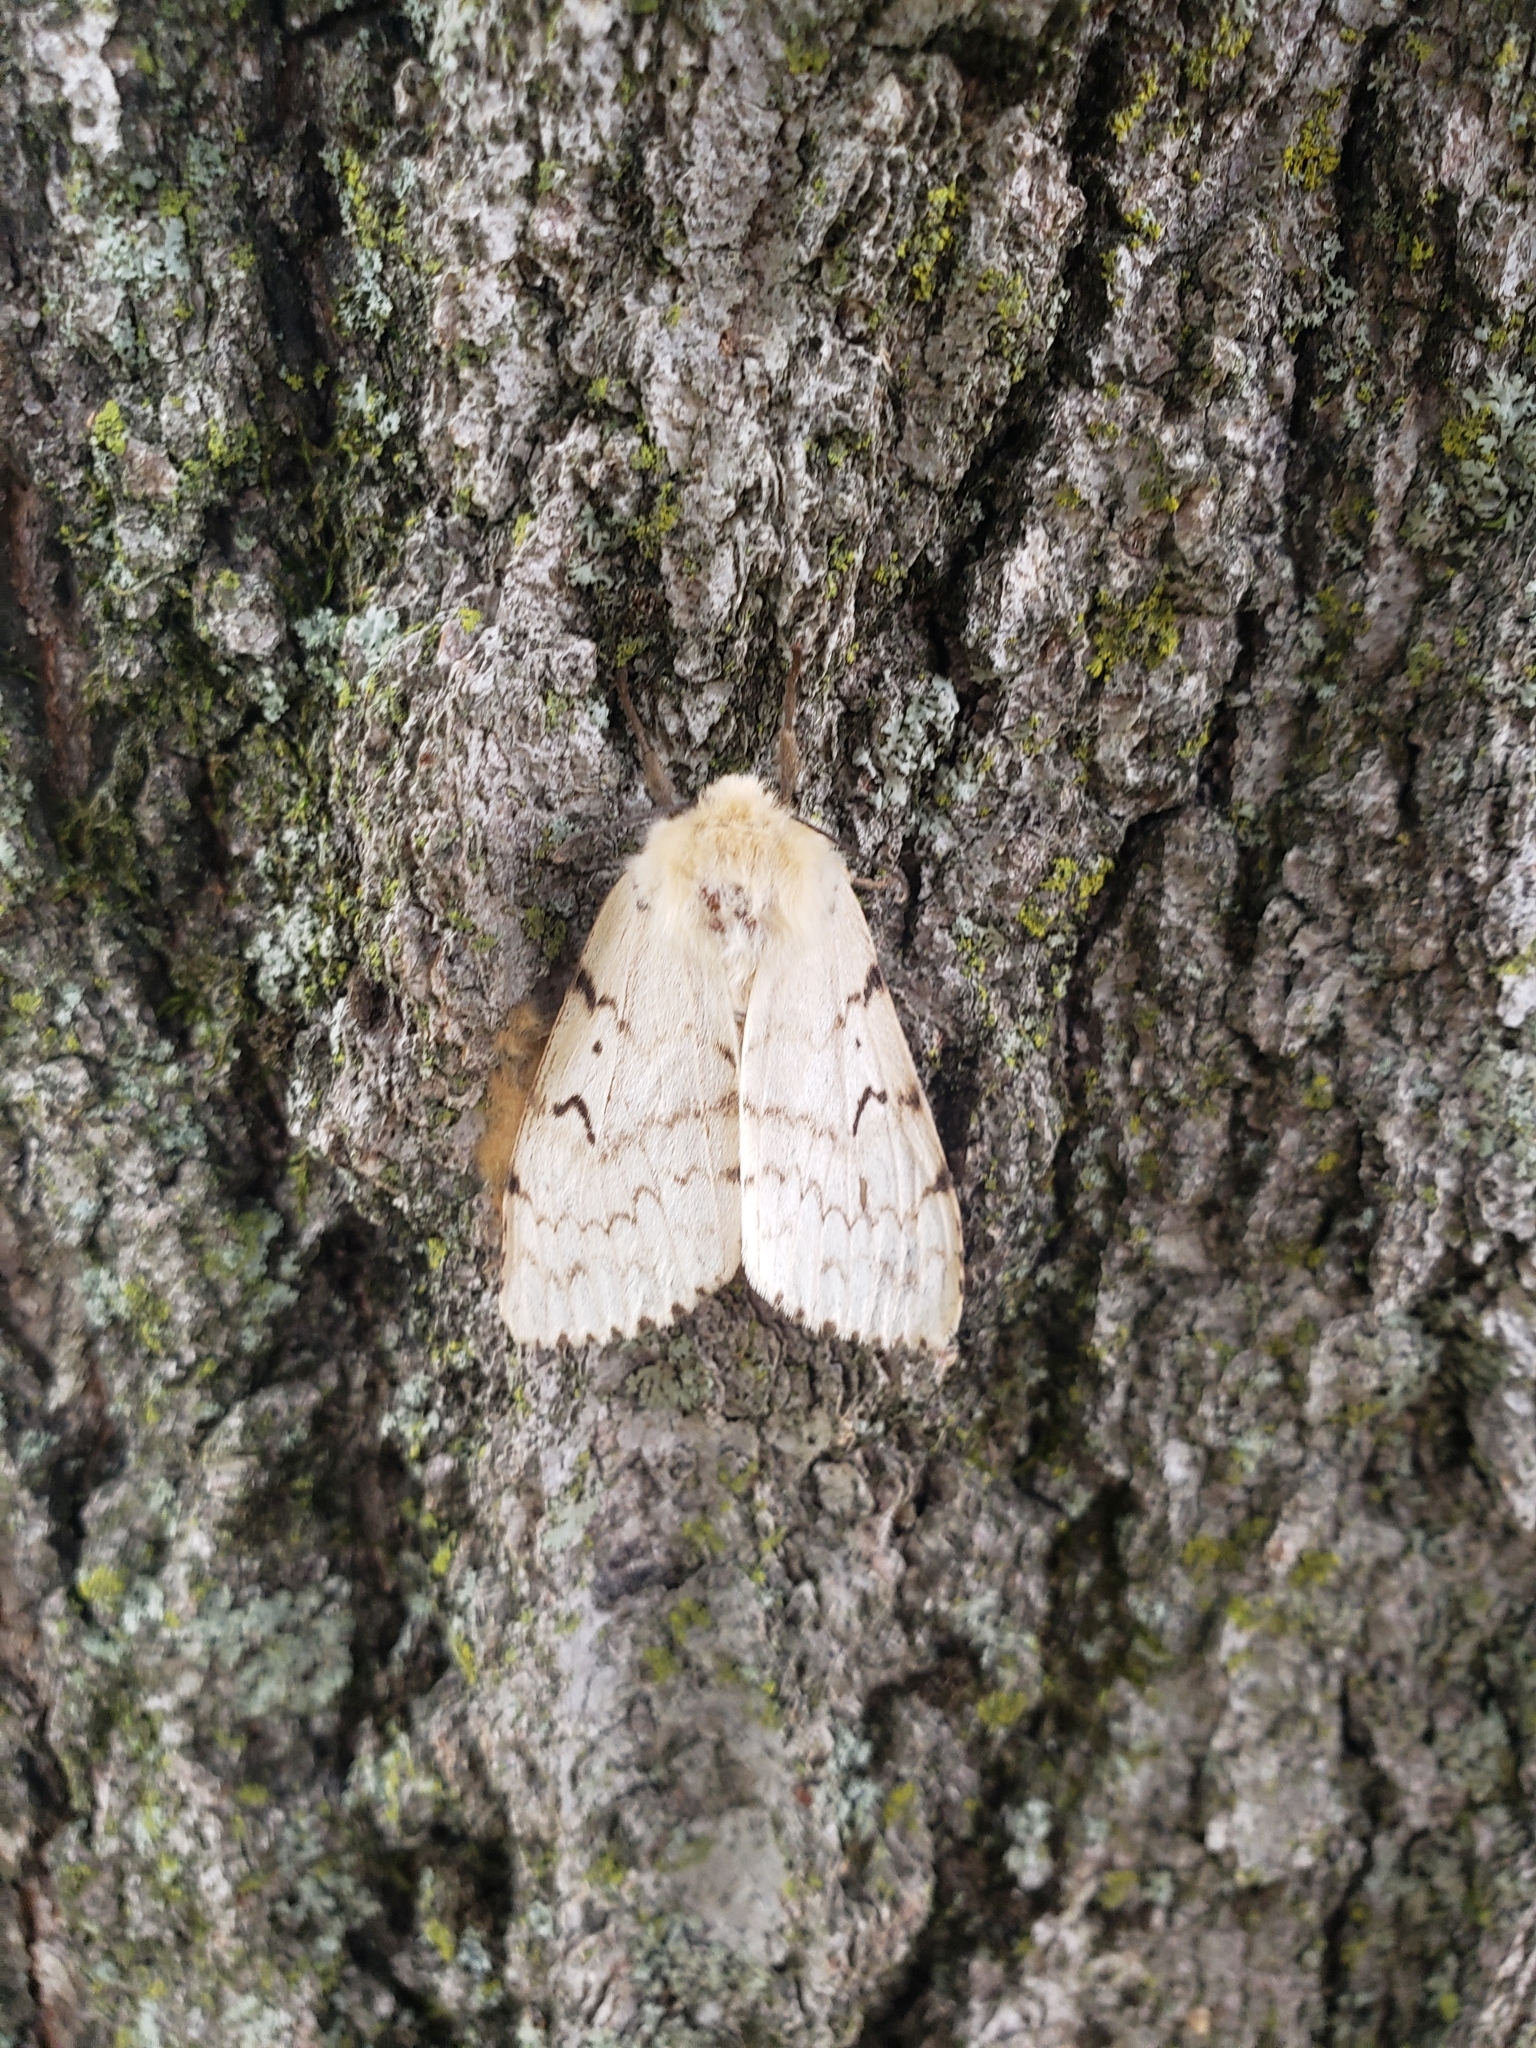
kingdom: Animalia
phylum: Arthropoda
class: Insecta
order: Lepidoptera
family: Erebidae
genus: Lymantria
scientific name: Lymantria dispar
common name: Gypsy moth
